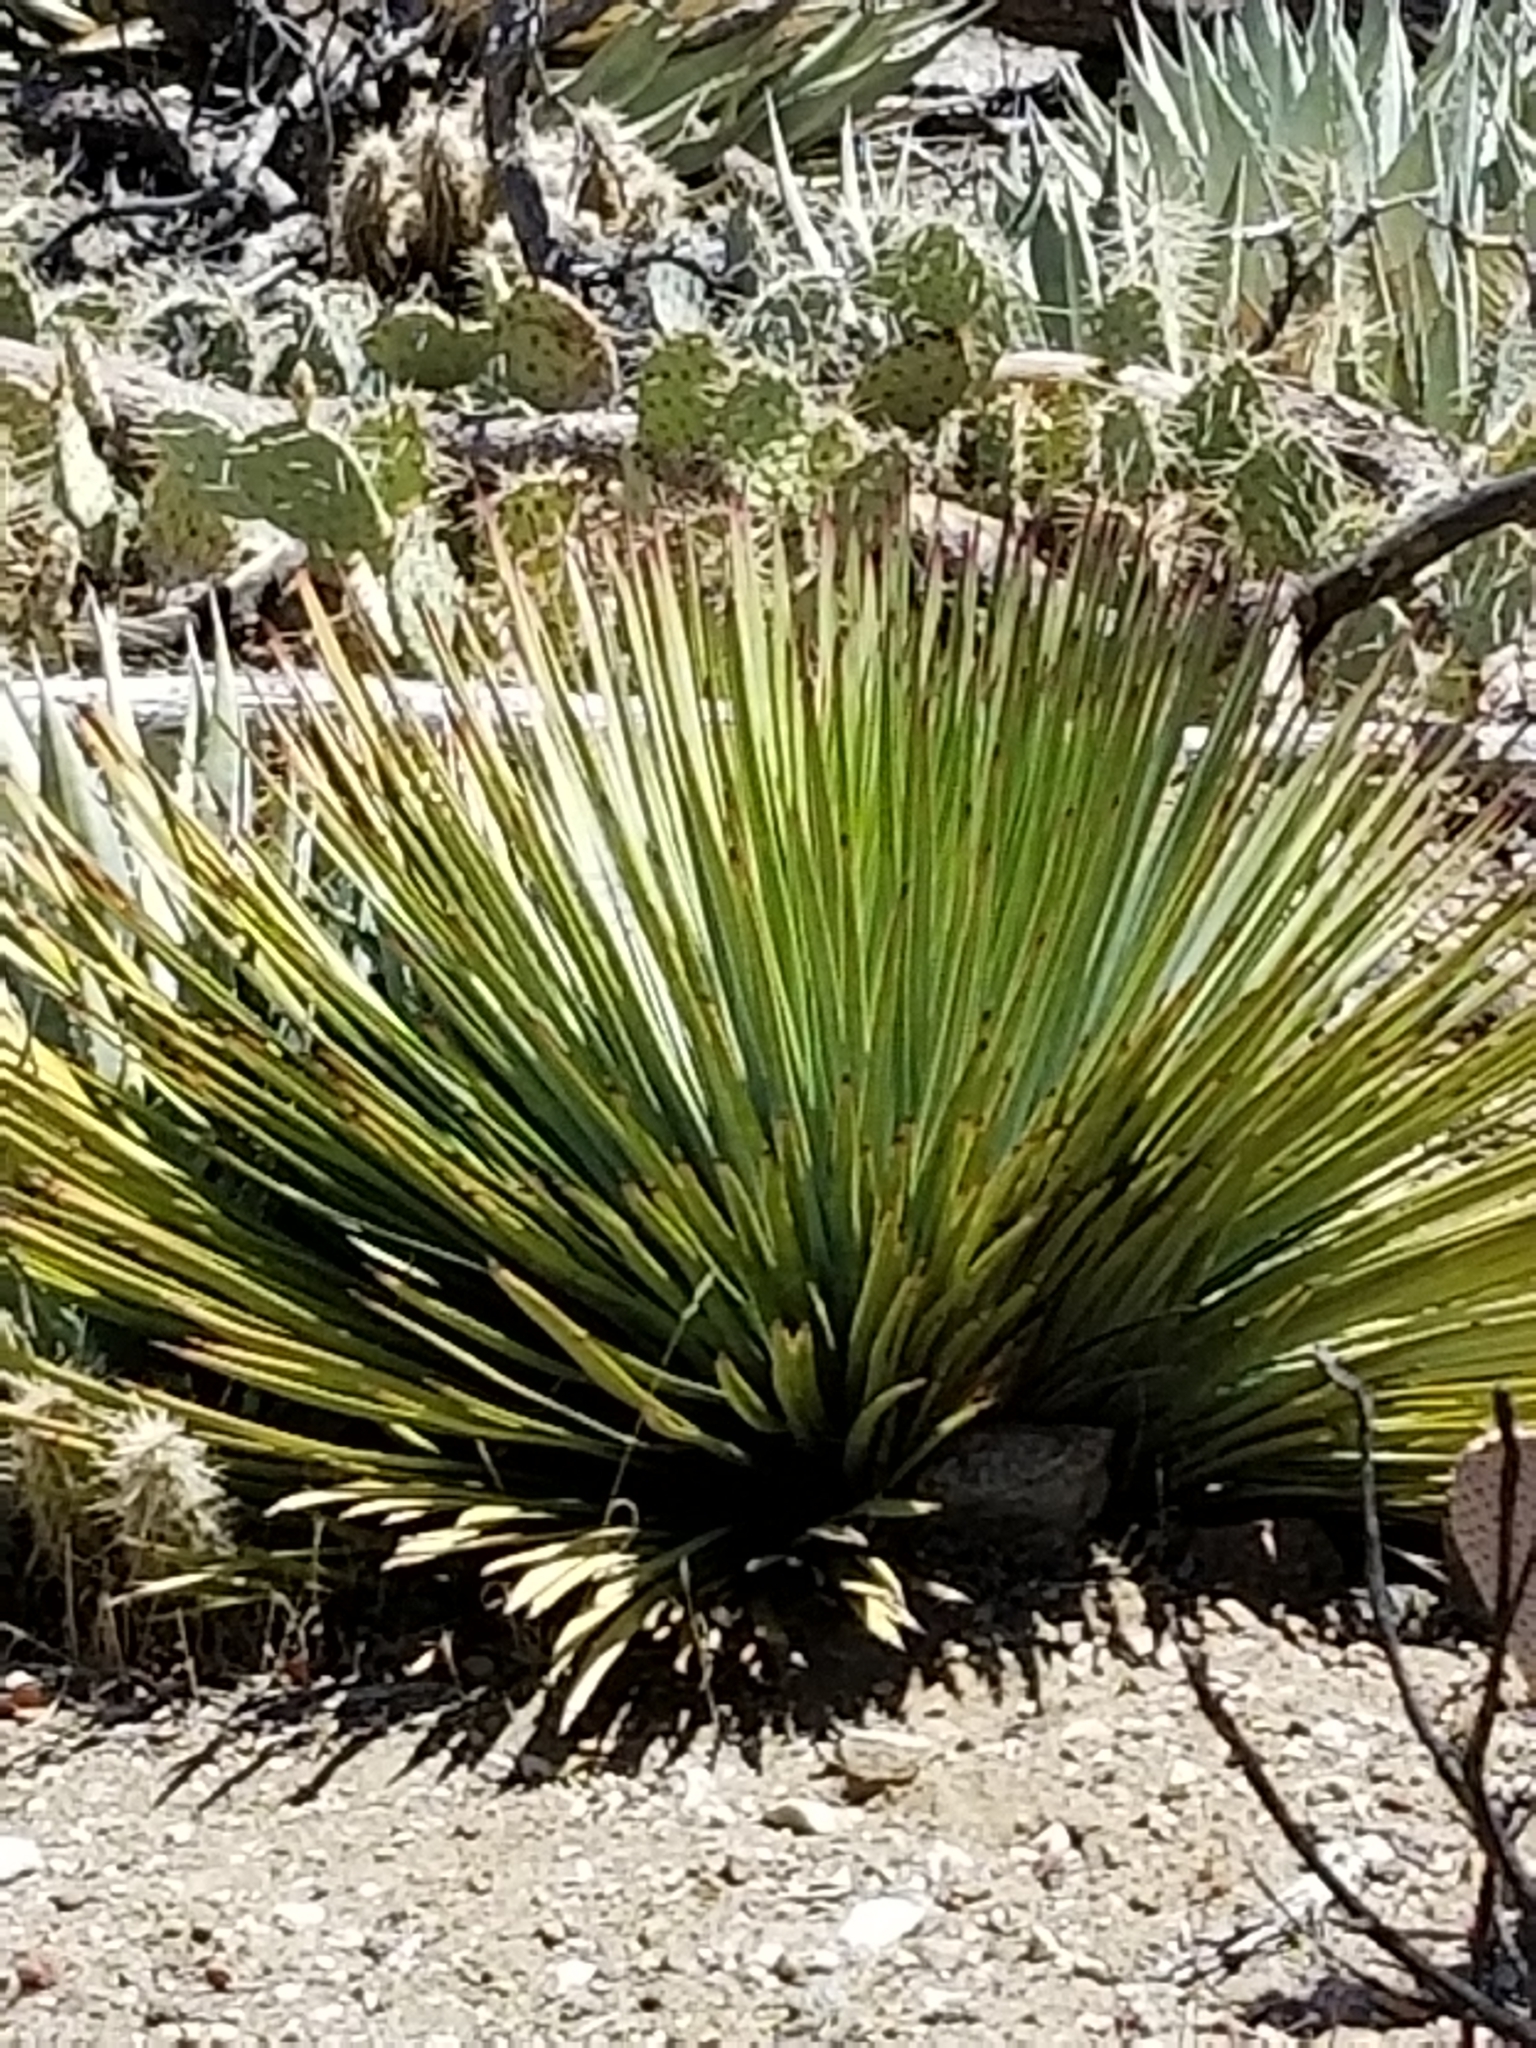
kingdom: Plantae
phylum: Tracheophyta
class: Liliopsida
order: Asparagales
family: Asparagaceae
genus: Hesperoyucca
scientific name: Hesperoyucca whipplei
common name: Our lord's-candle
